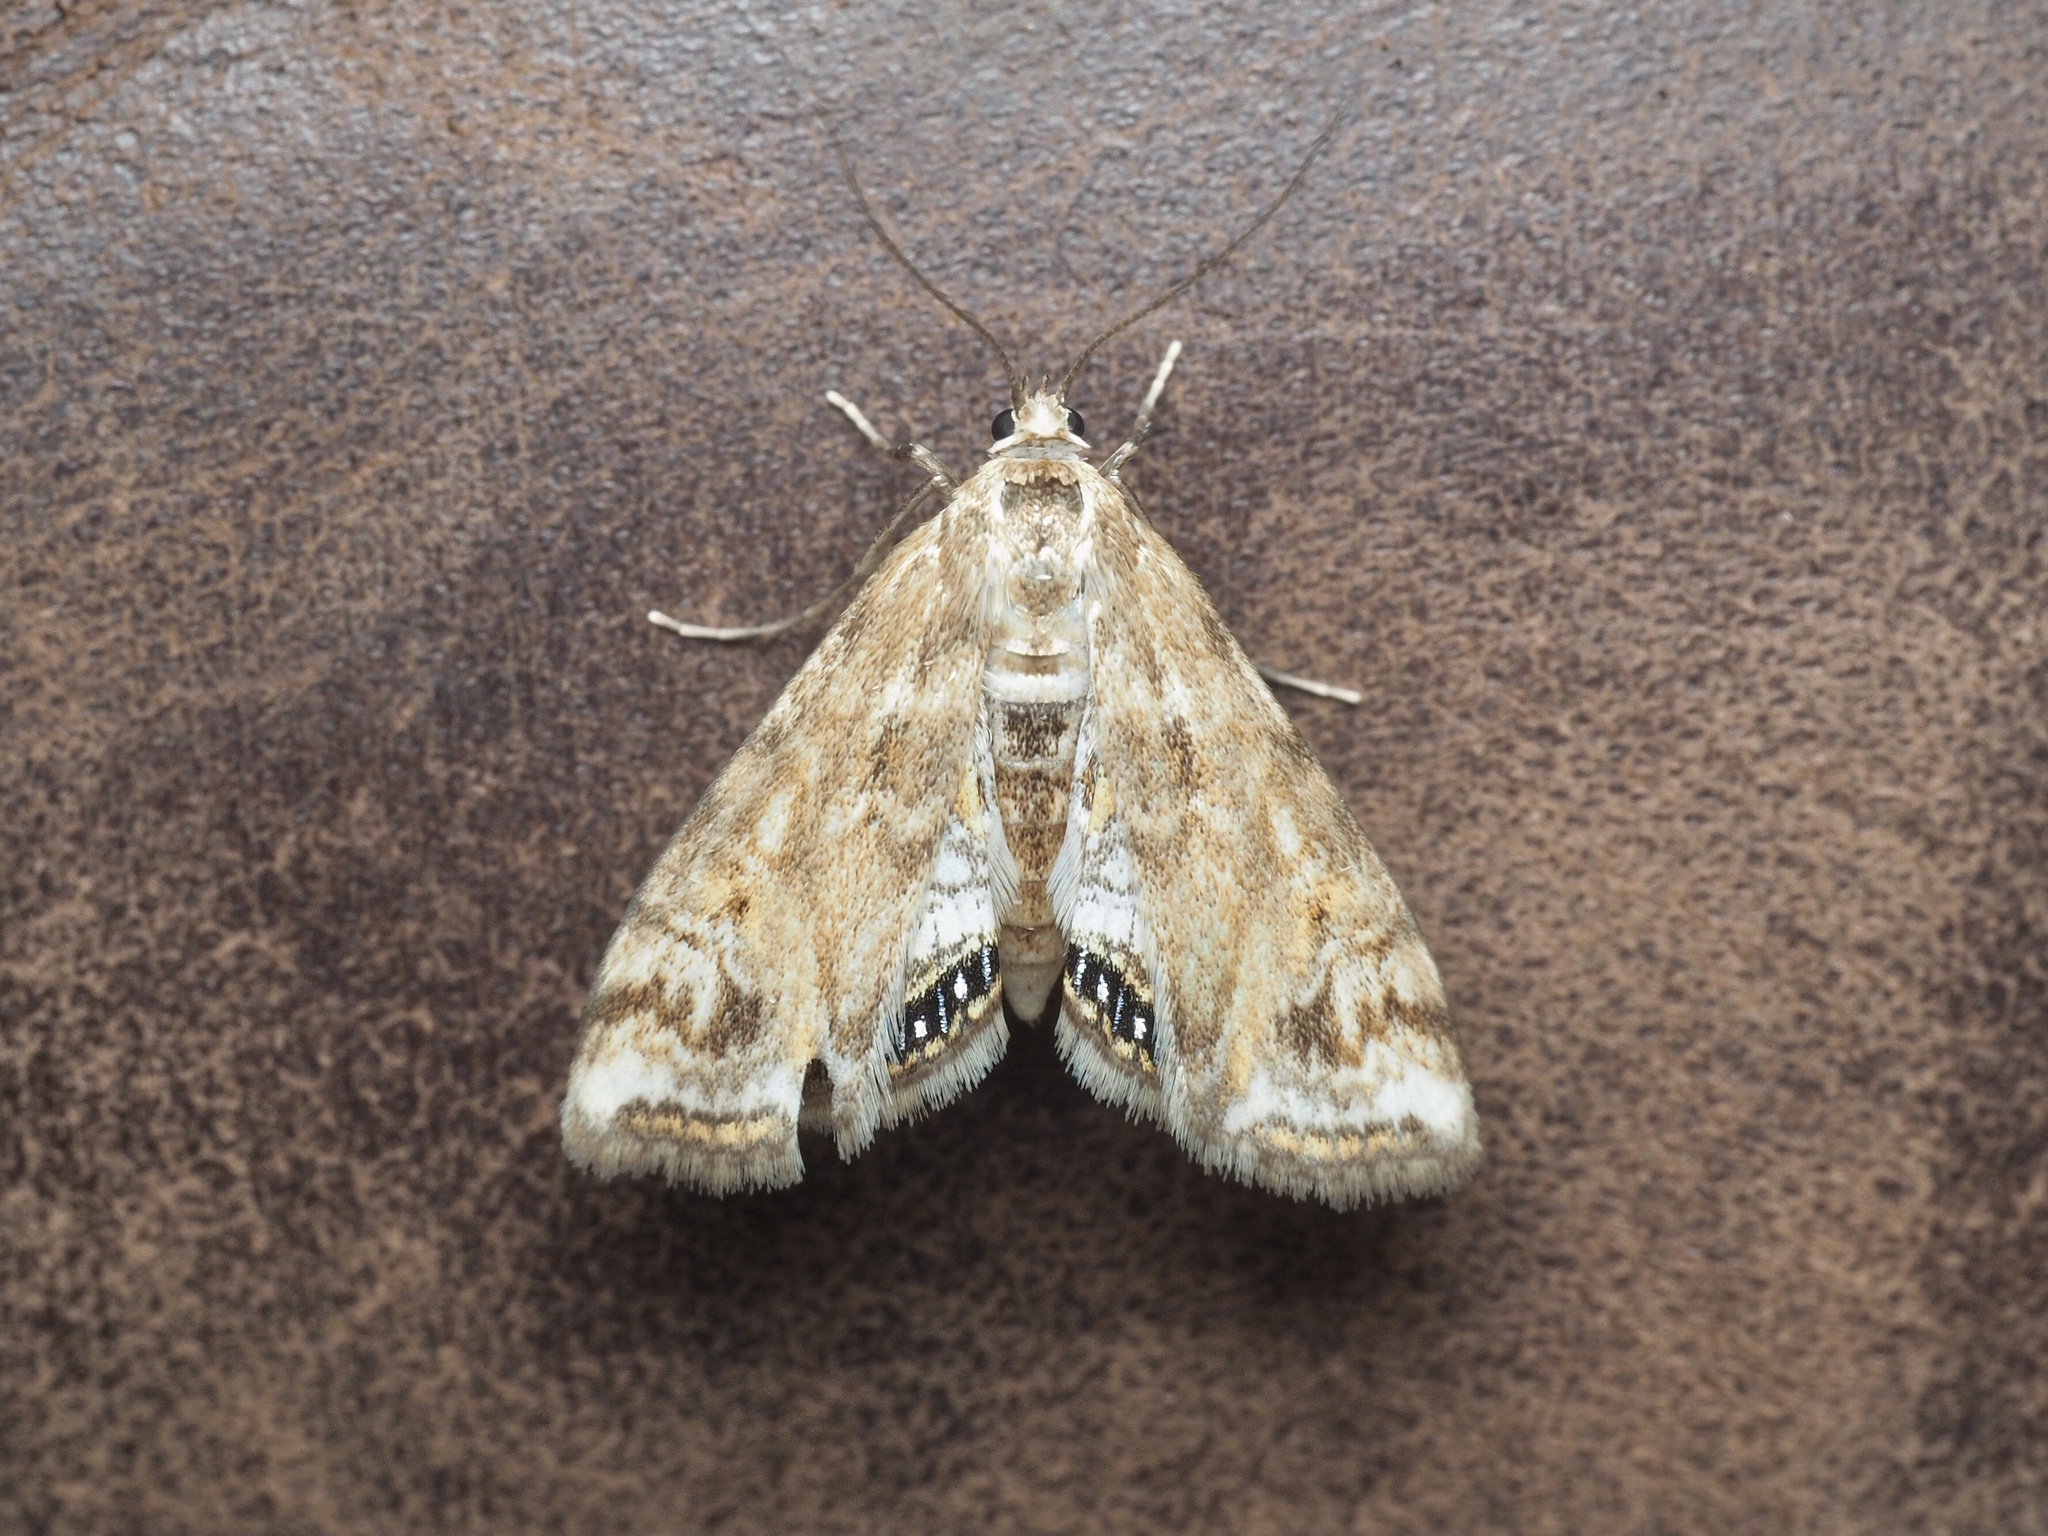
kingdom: Animalia
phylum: Arthropoda
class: Insecta
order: Lepidoptera
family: Crambidae
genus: Cataclysta
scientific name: Cataclysta lemnata
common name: Small china-mark
